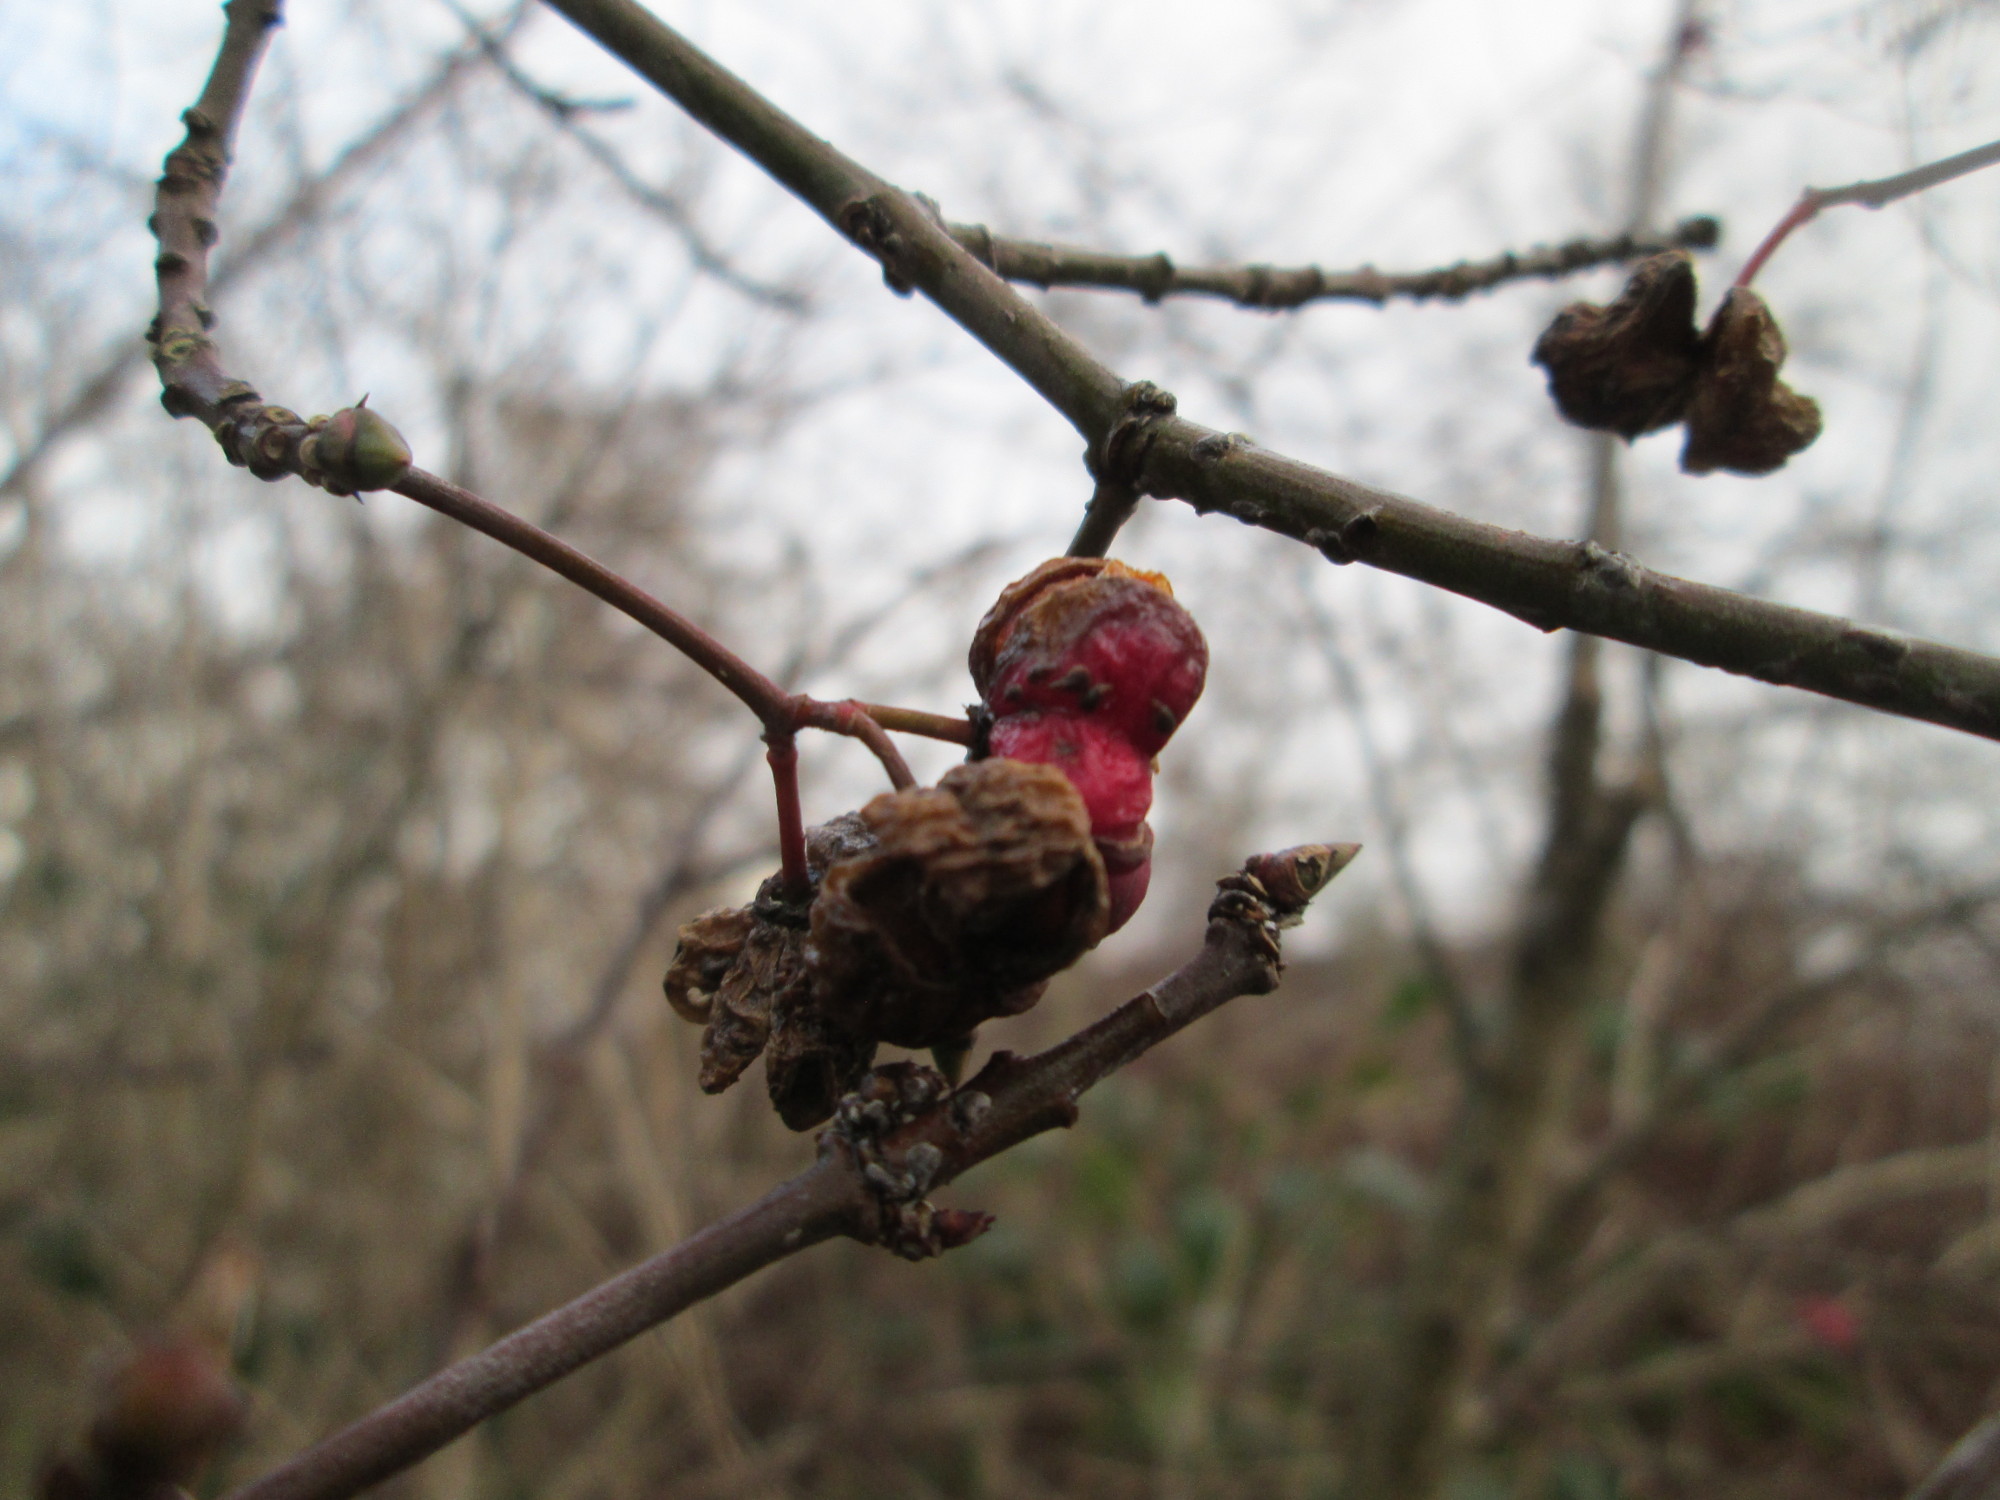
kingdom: Plantae
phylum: Tracheophyta
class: Magnoliopsida
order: Celastrales
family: Celastraceae
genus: Euonymus
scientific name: Euonymus europaeus
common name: Spindle
